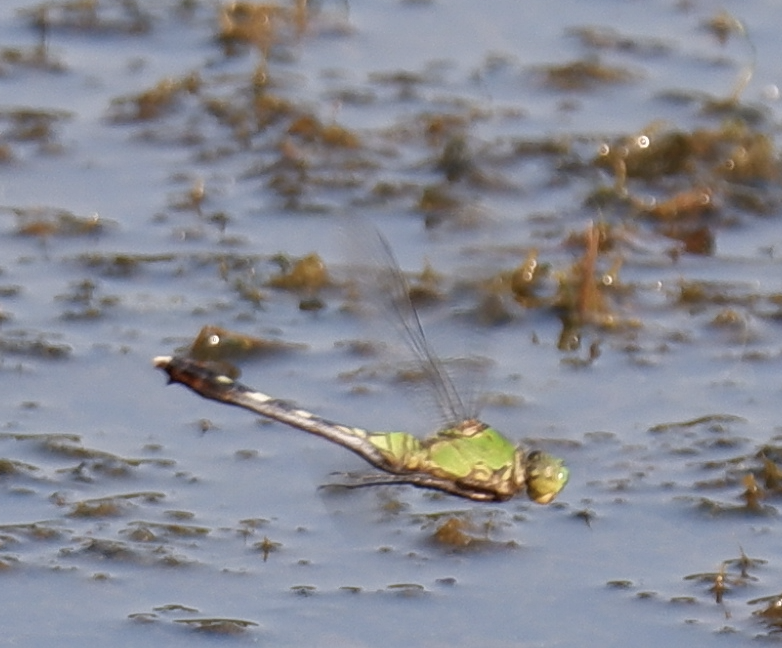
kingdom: Animalia
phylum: Arthropoda
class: Insecta
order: Odonata
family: Libellulidae
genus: Erythemis
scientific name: Erythemis simplicicollis
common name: Eastern pondhawk
